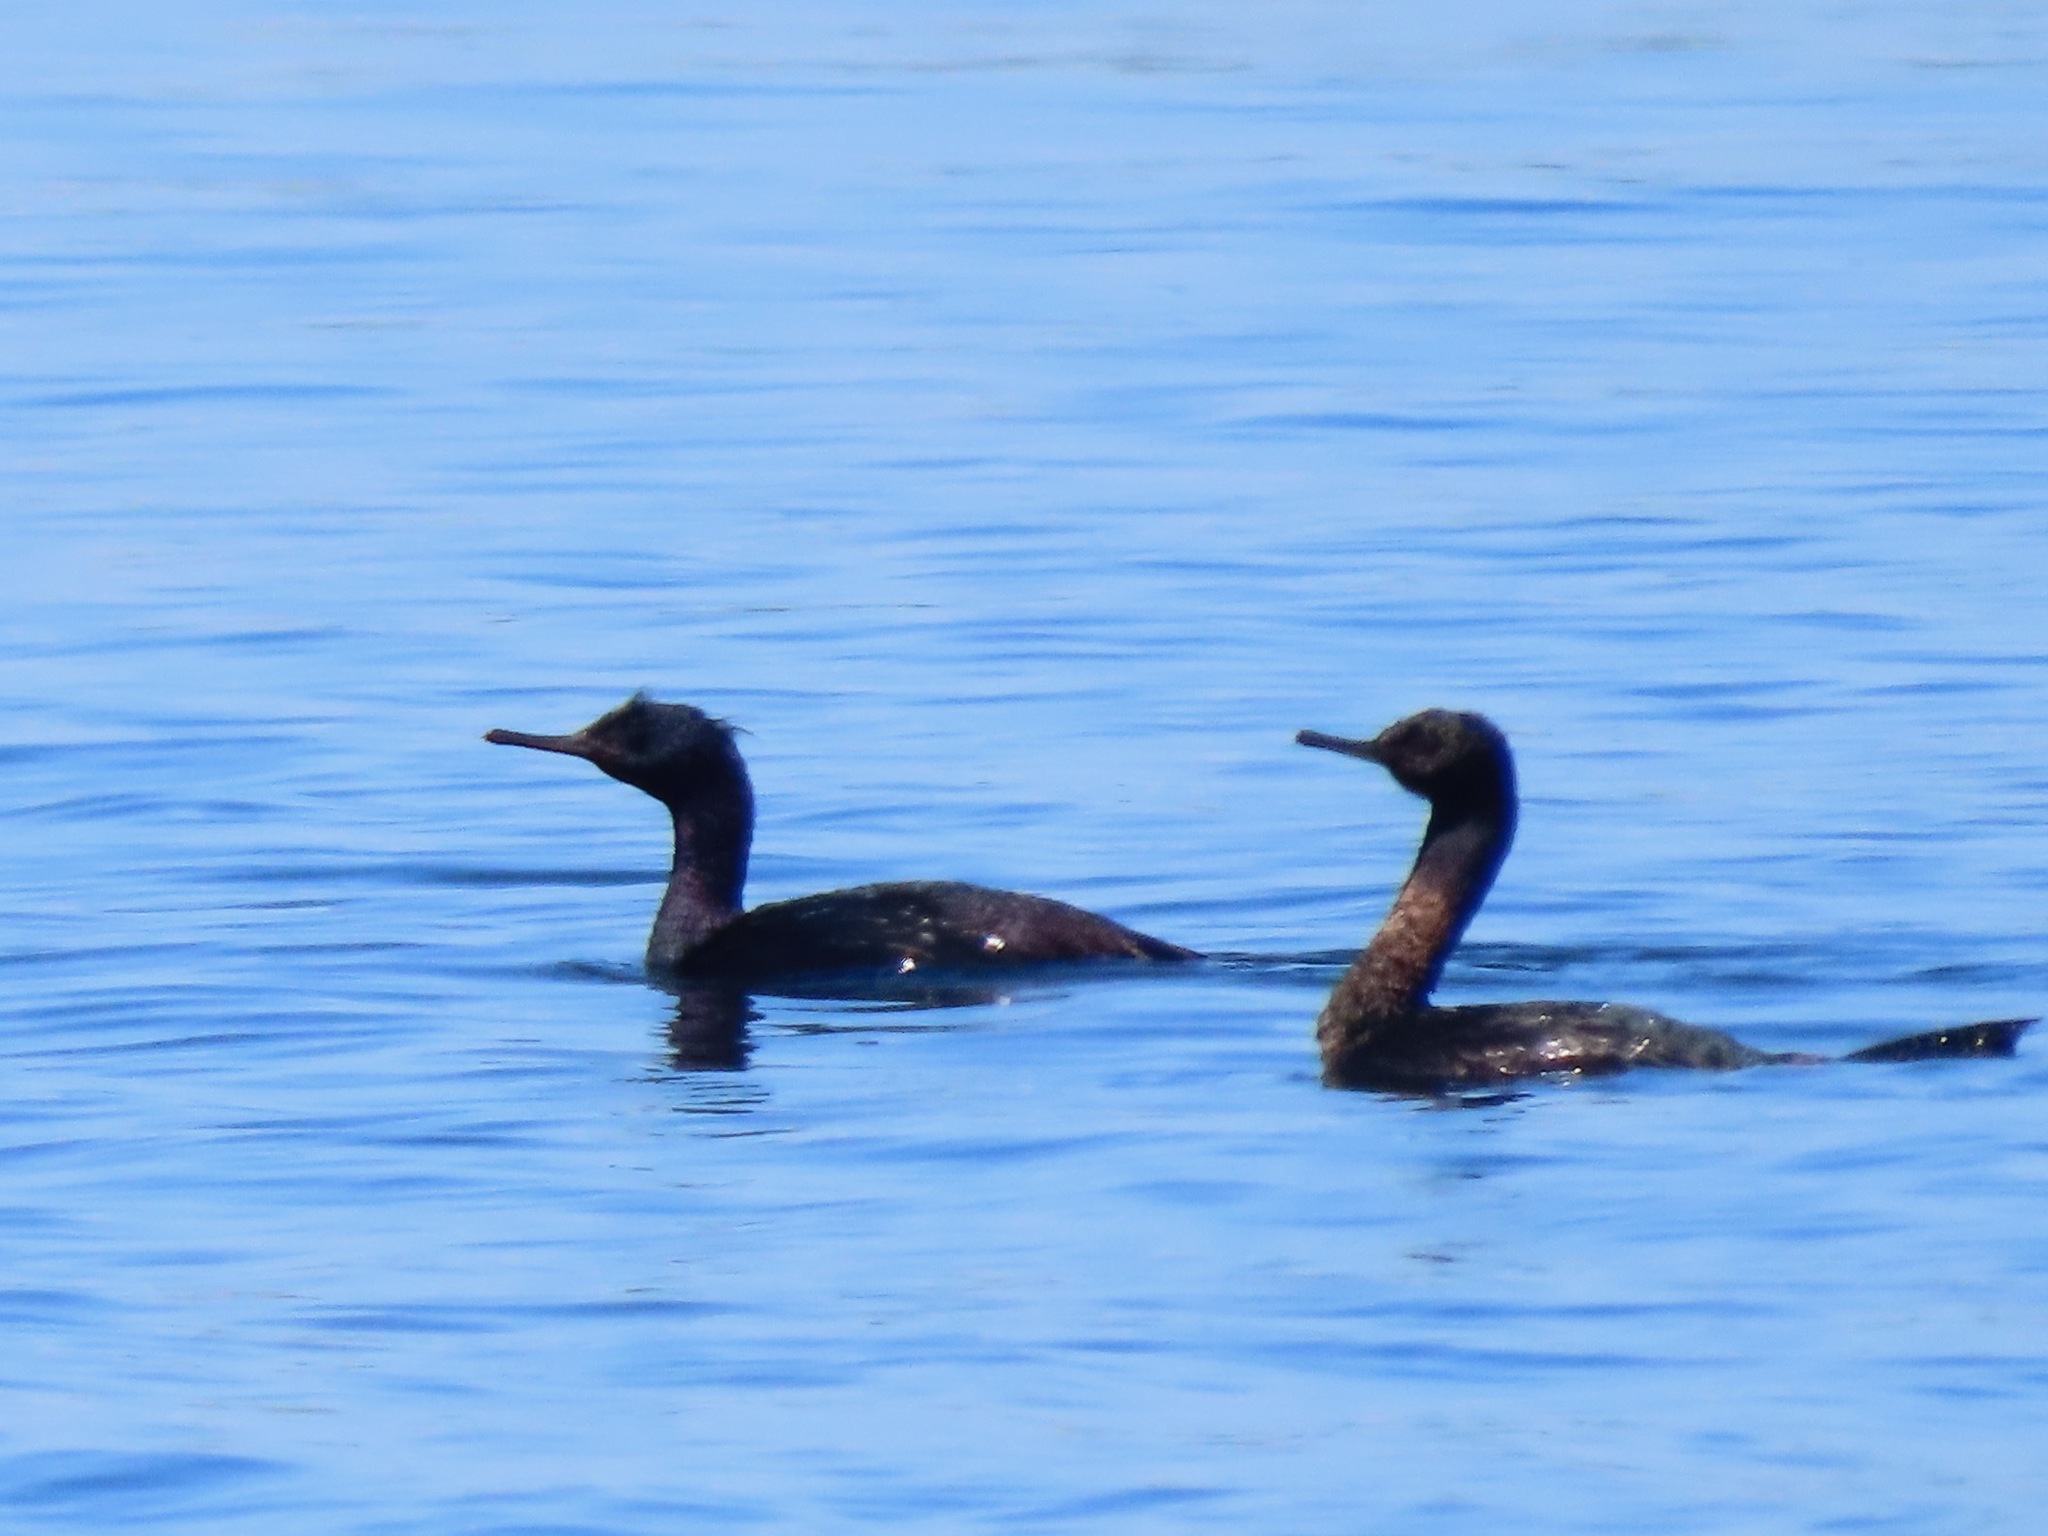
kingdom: Animalia
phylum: Chordata
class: Aves
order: Suliformes
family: Phalacrocoracidae
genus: Phalacrocorax
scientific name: Phalacrocorax pelagicus
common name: Pelagic cormorant
